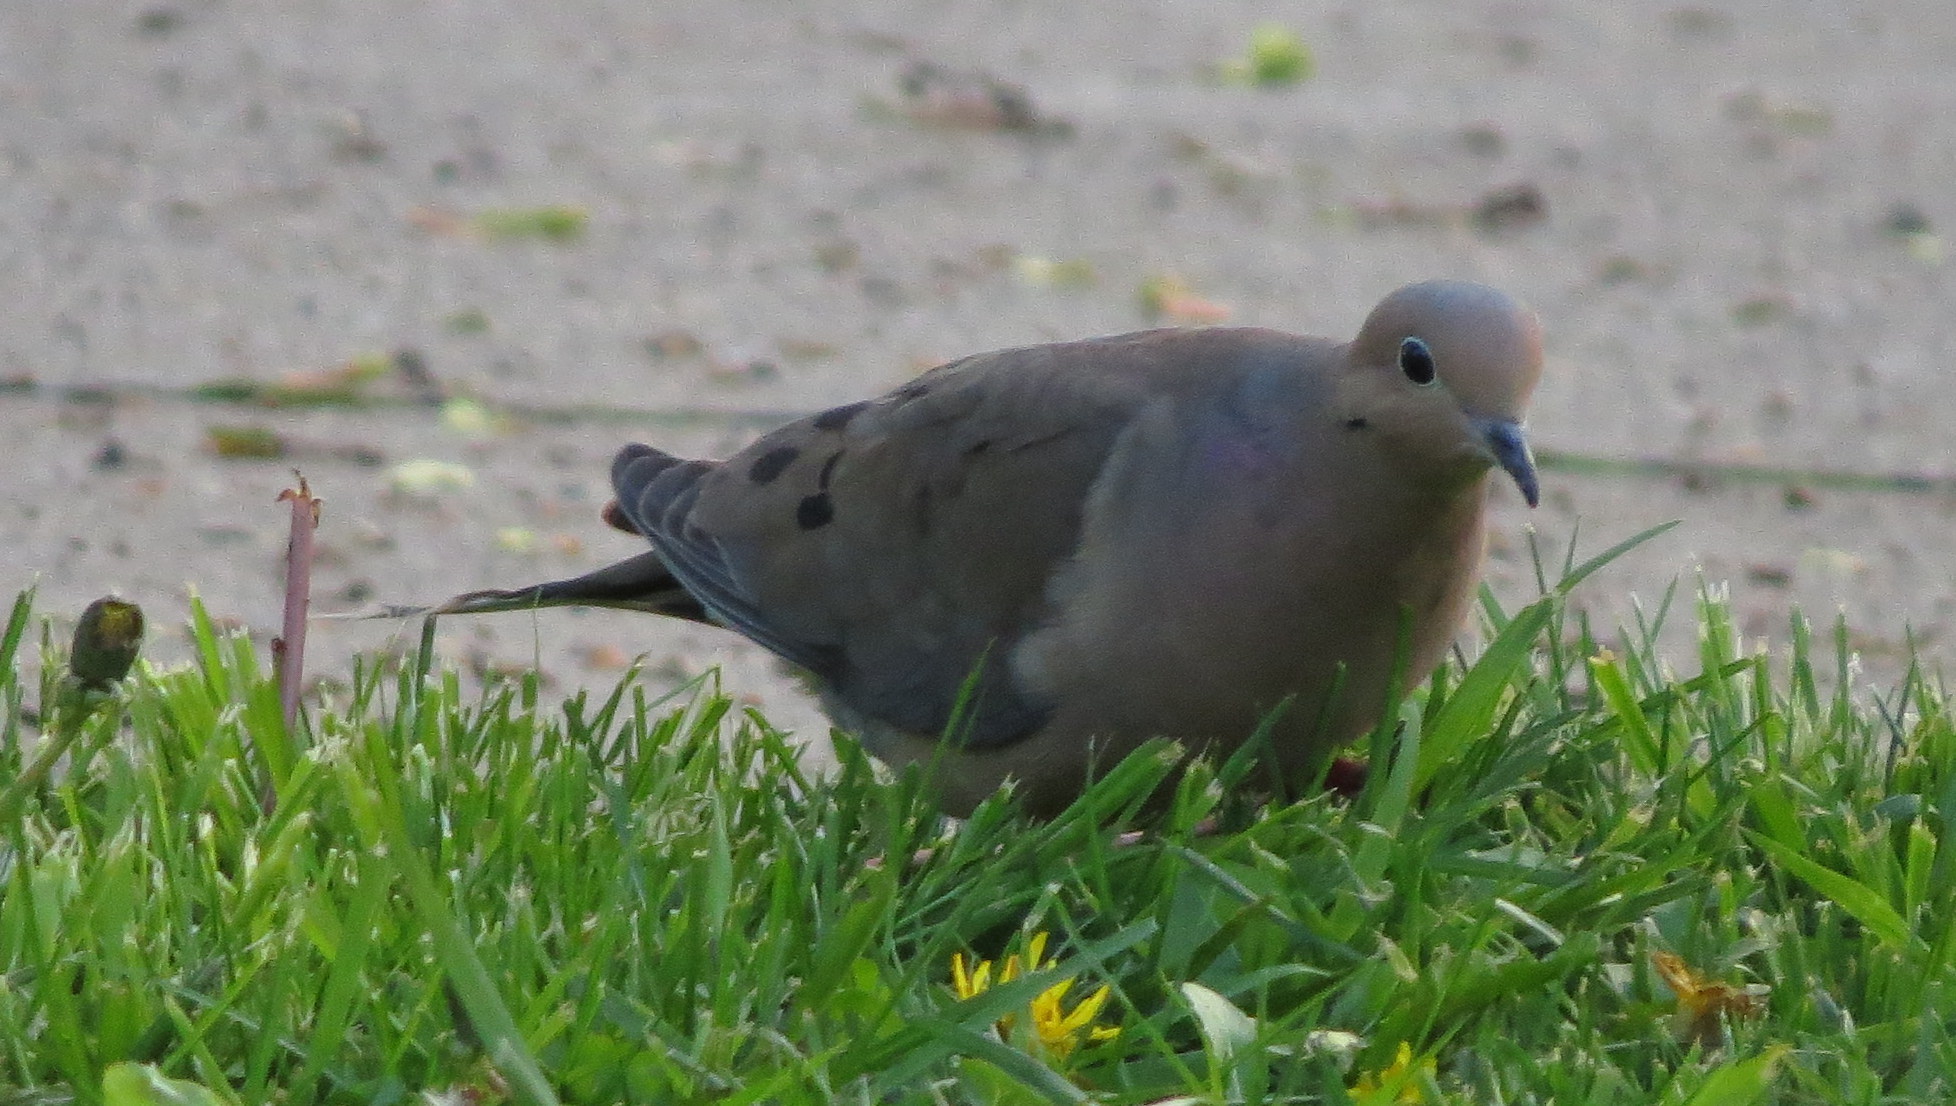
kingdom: Animalia
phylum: Chordata
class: Aves
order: Columbiformes
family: Columbidae
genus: Zenaida
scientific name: Zenaida macroura
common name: Mourning dove
